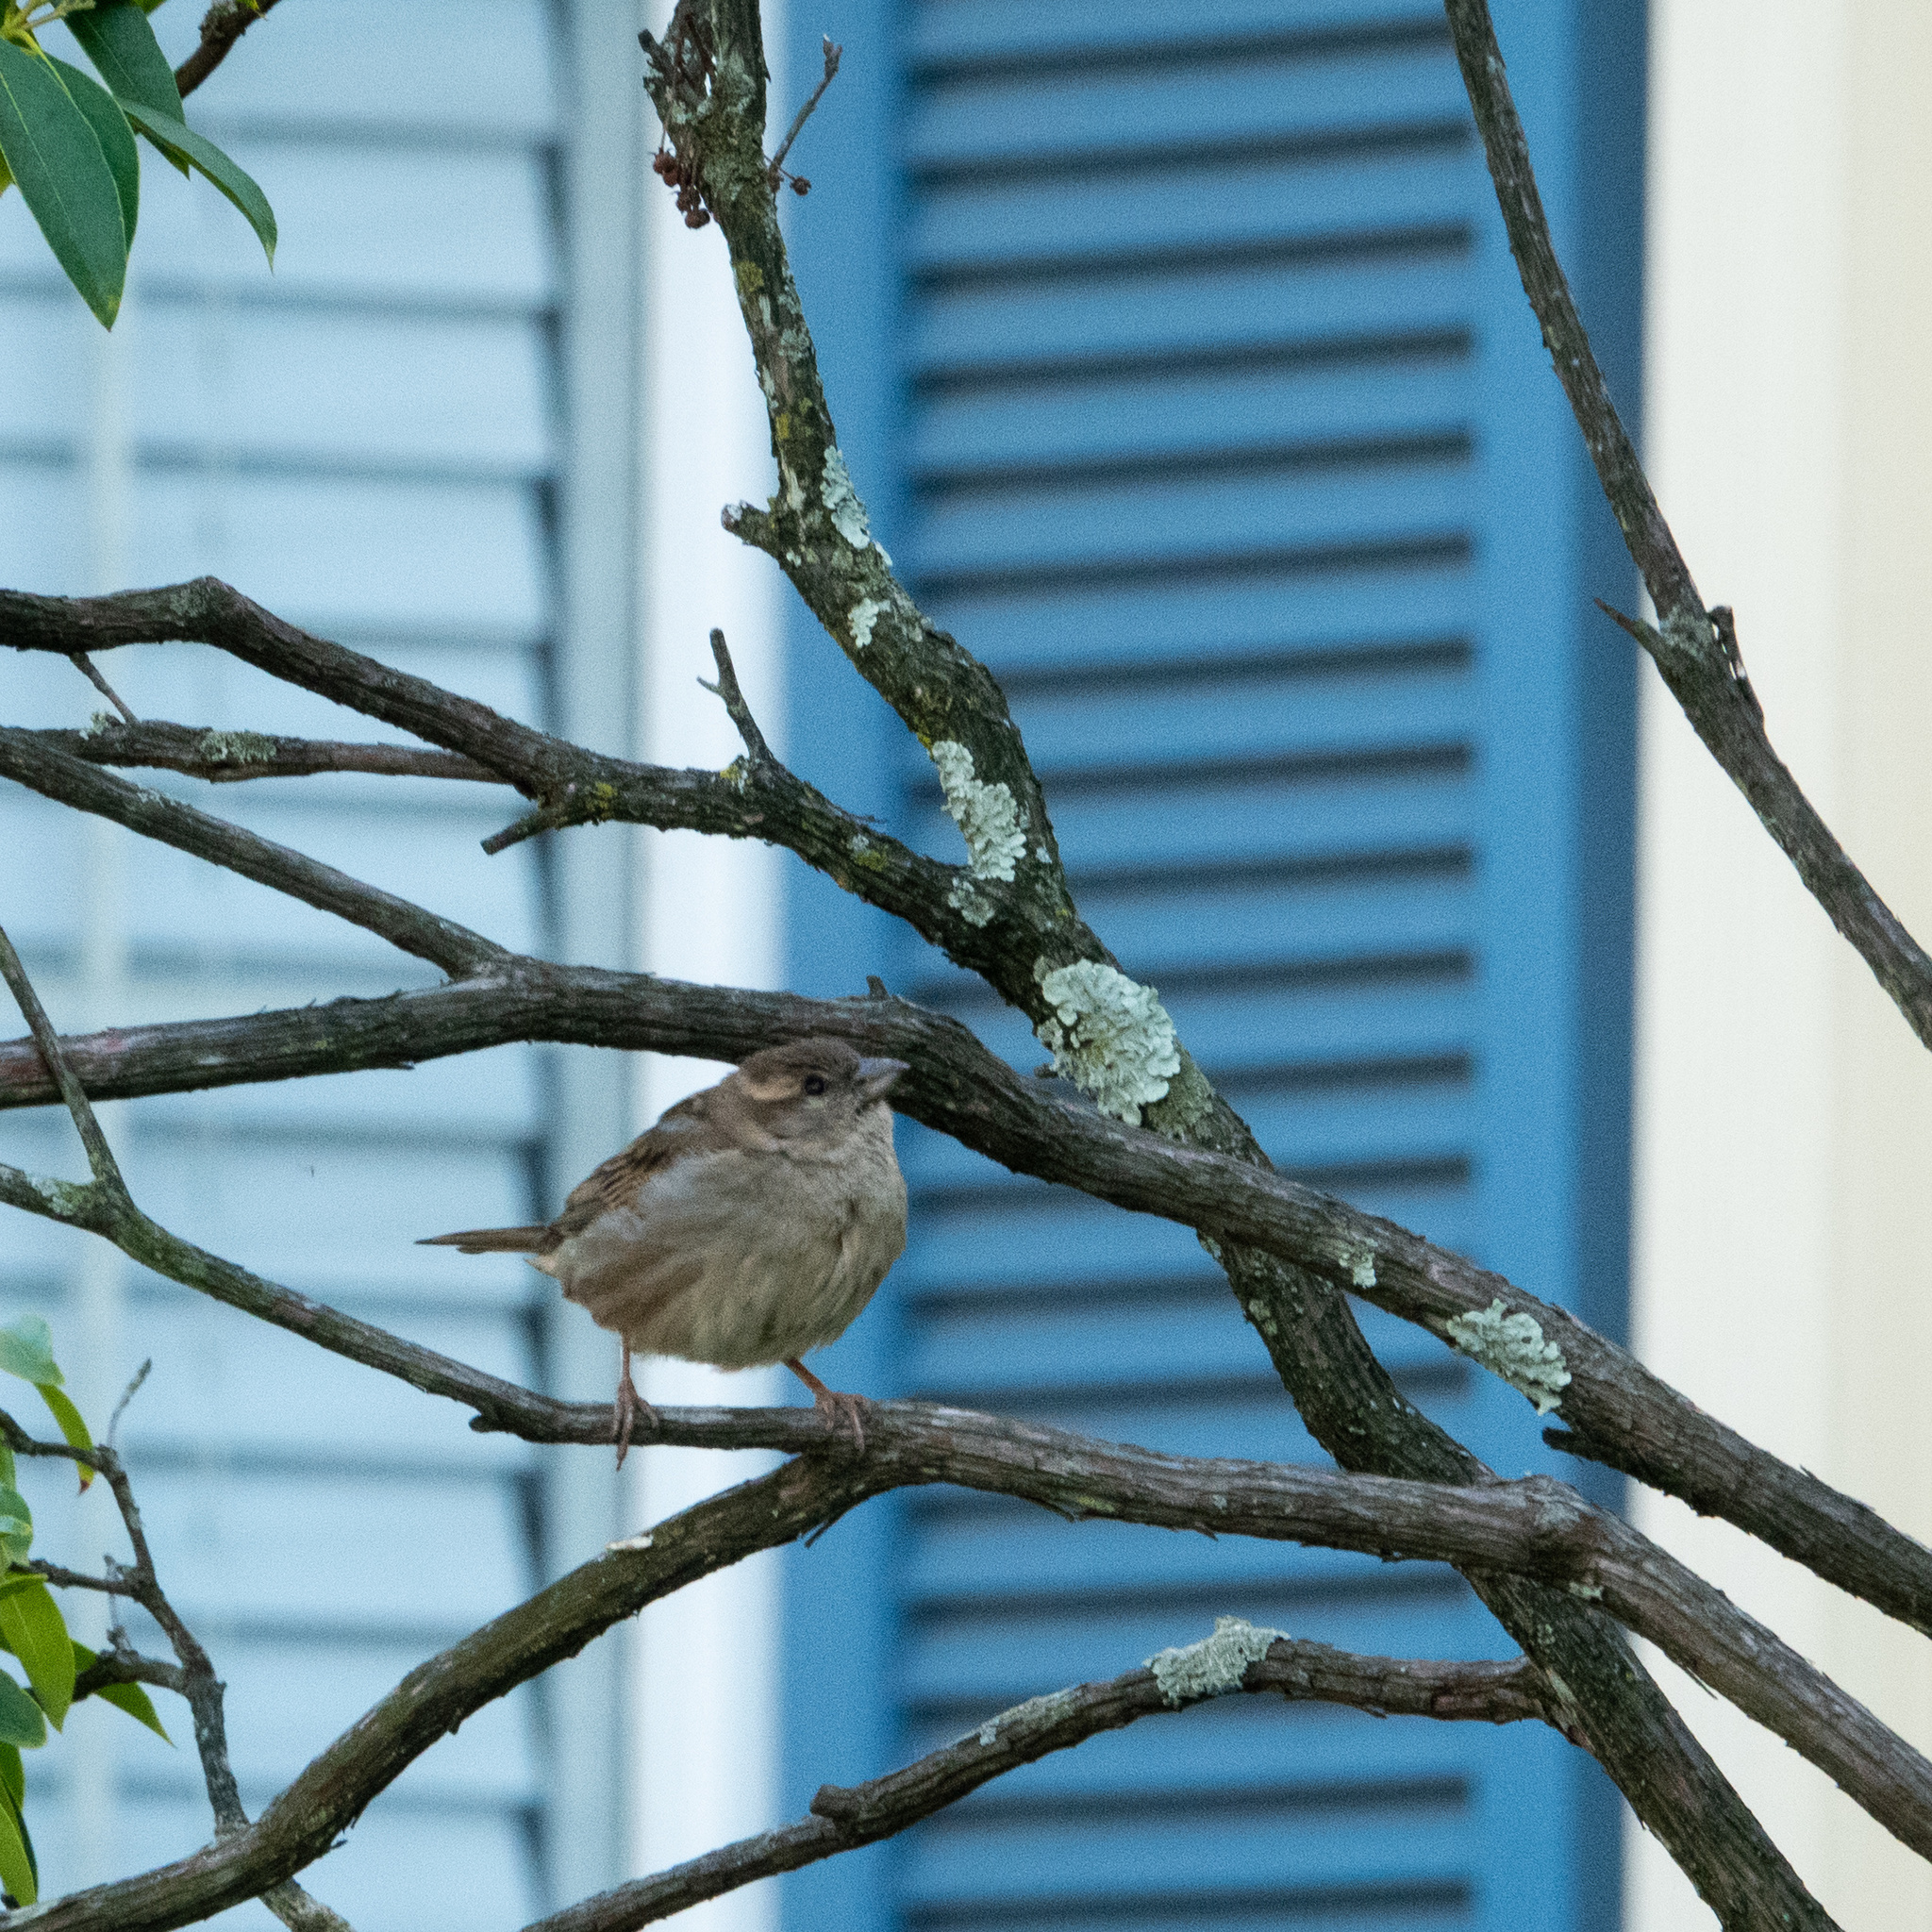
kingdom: Animalia
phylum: Chordata
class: Aves
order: Passeriformes
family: Passeridae
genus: Passer
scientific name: Passer domesticus
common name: House sparrow
